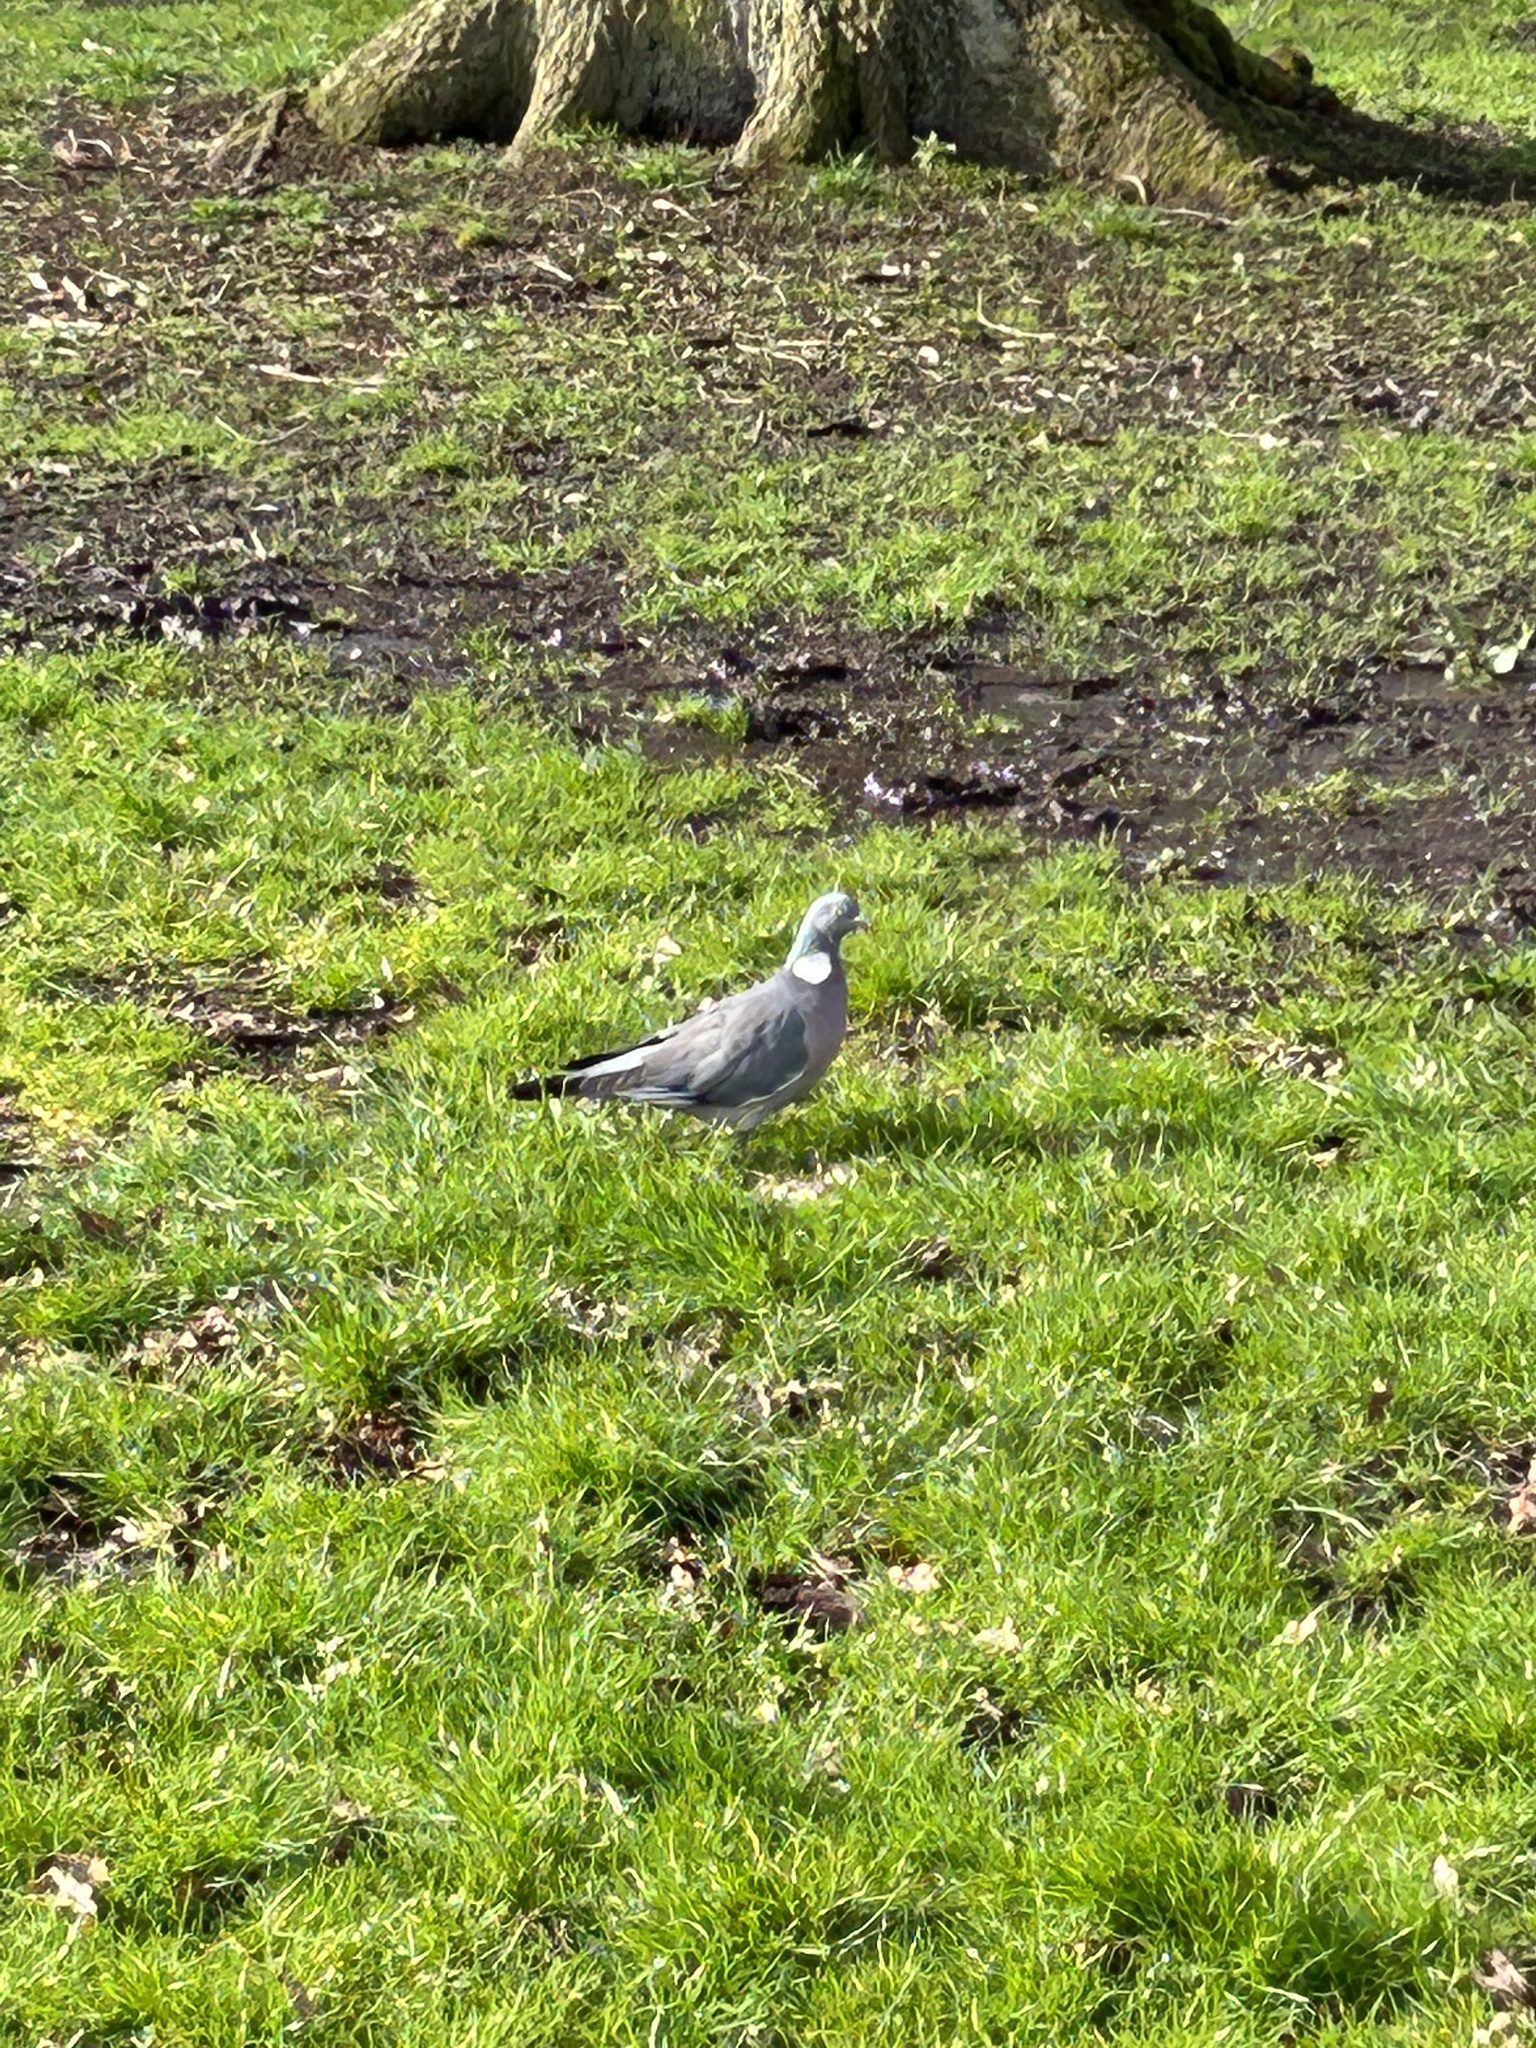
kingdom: Animalia
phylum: Chordata
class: Aves
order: Columbiformes
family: Columbidae
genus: Columba
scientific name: Columba palumbus
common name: Common wood pigeon
